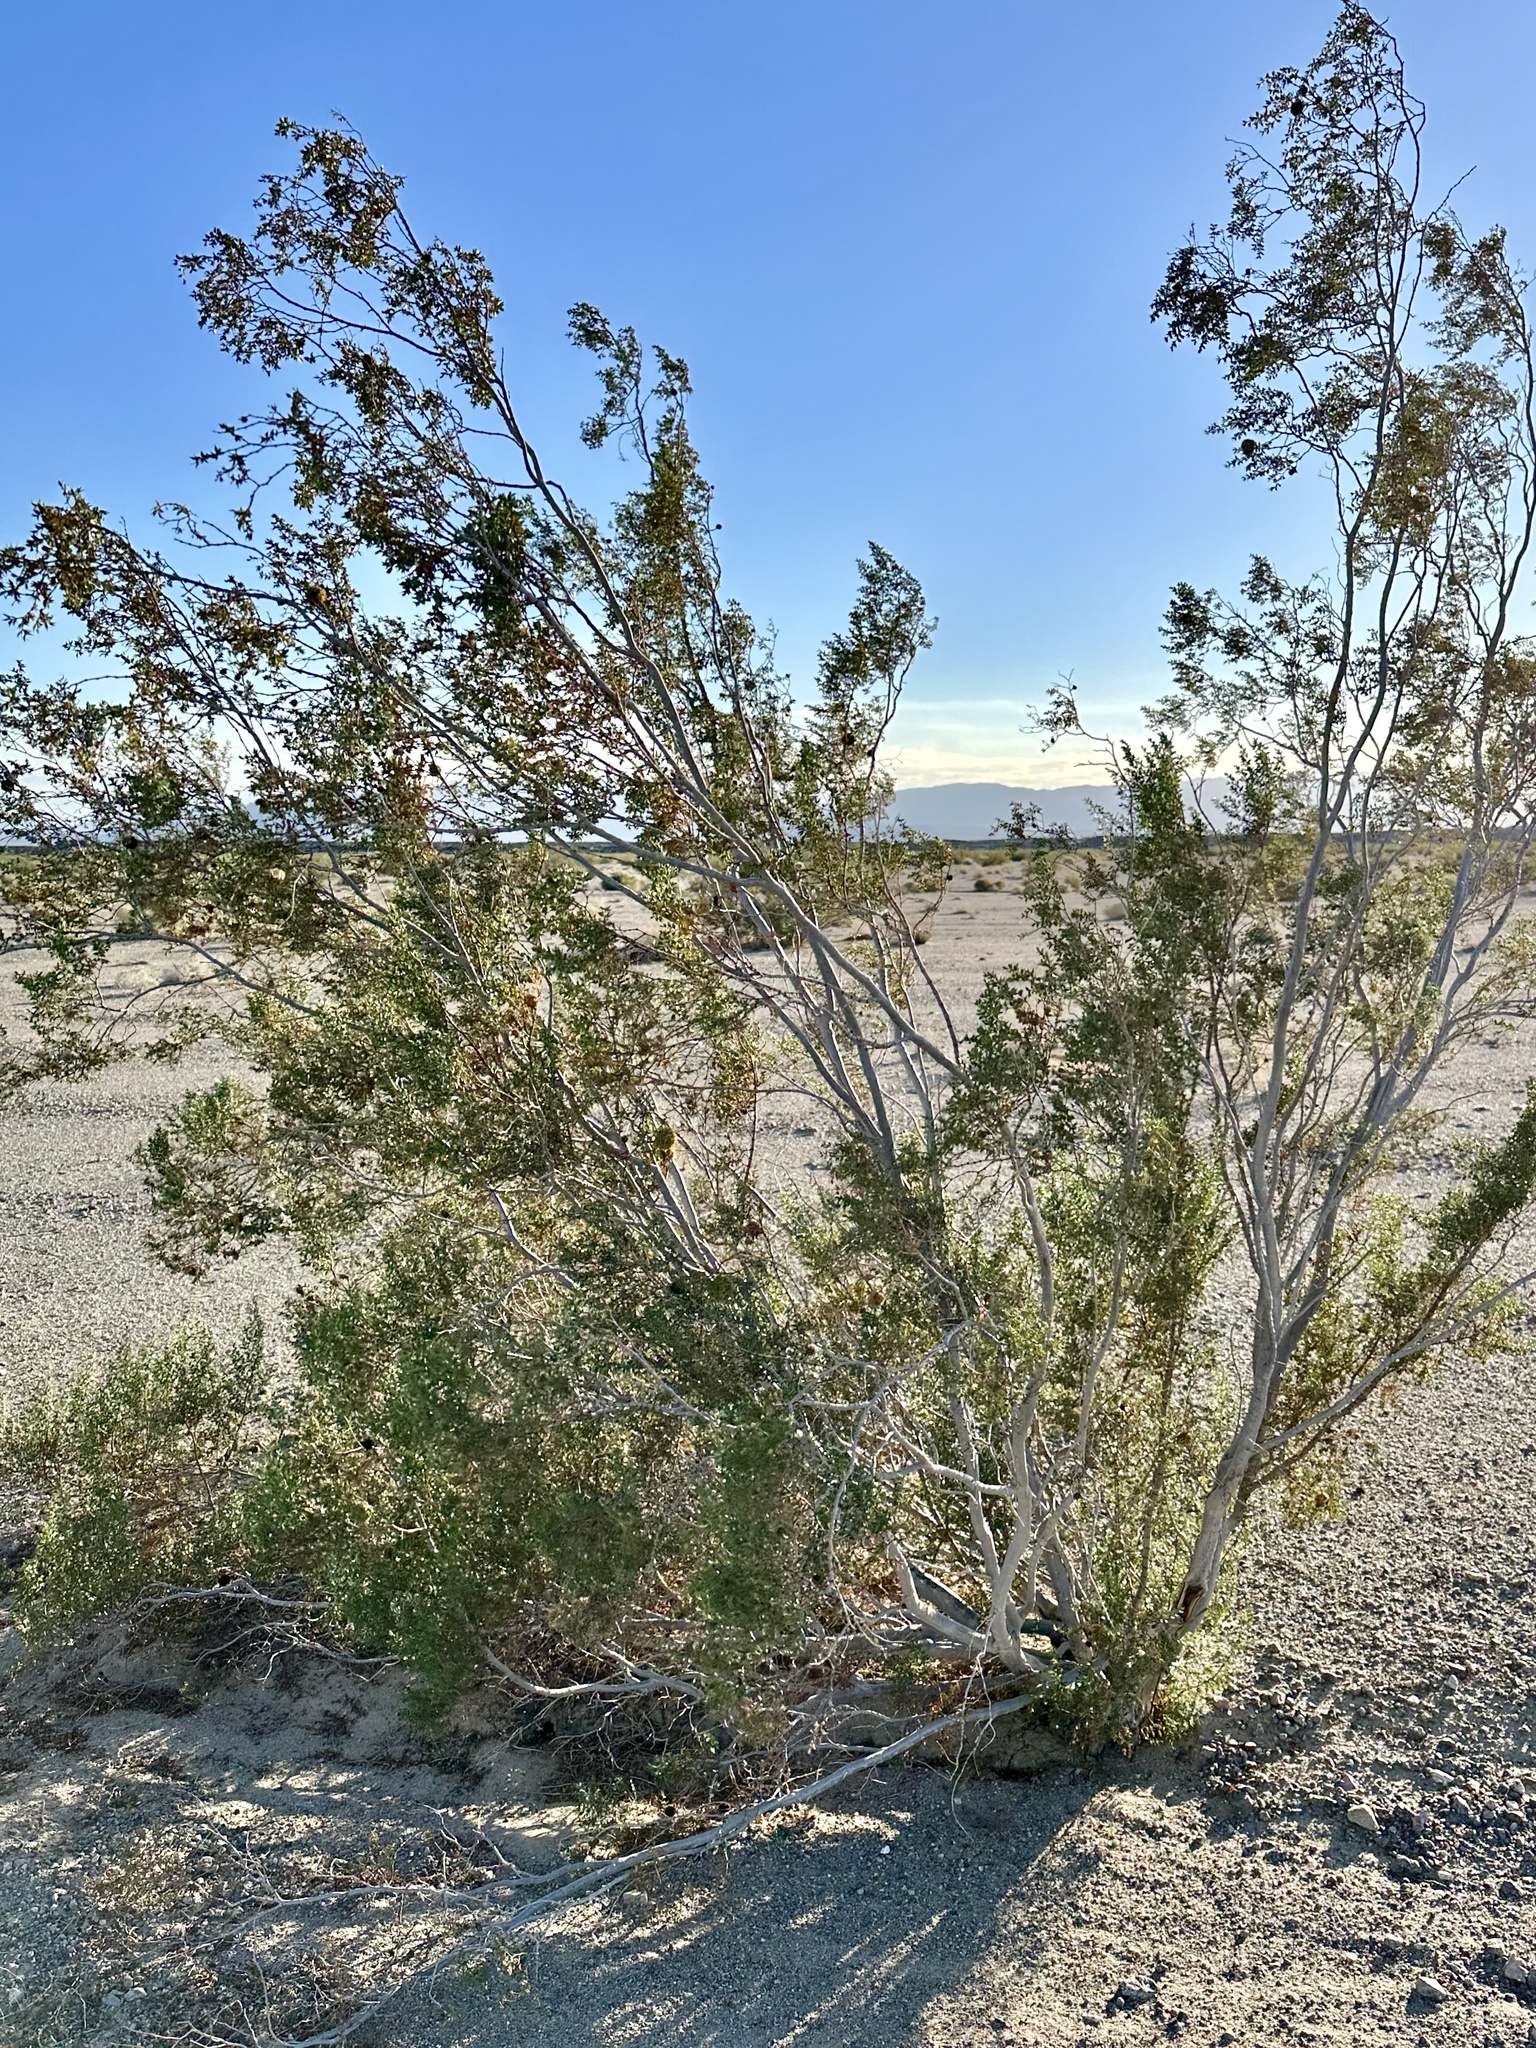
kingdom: Animalia
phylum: Arthropoda
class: Insecta
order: Diptera
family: Cecidomyiidae
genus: Asphondylia
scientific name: Asphondylia rosetta
